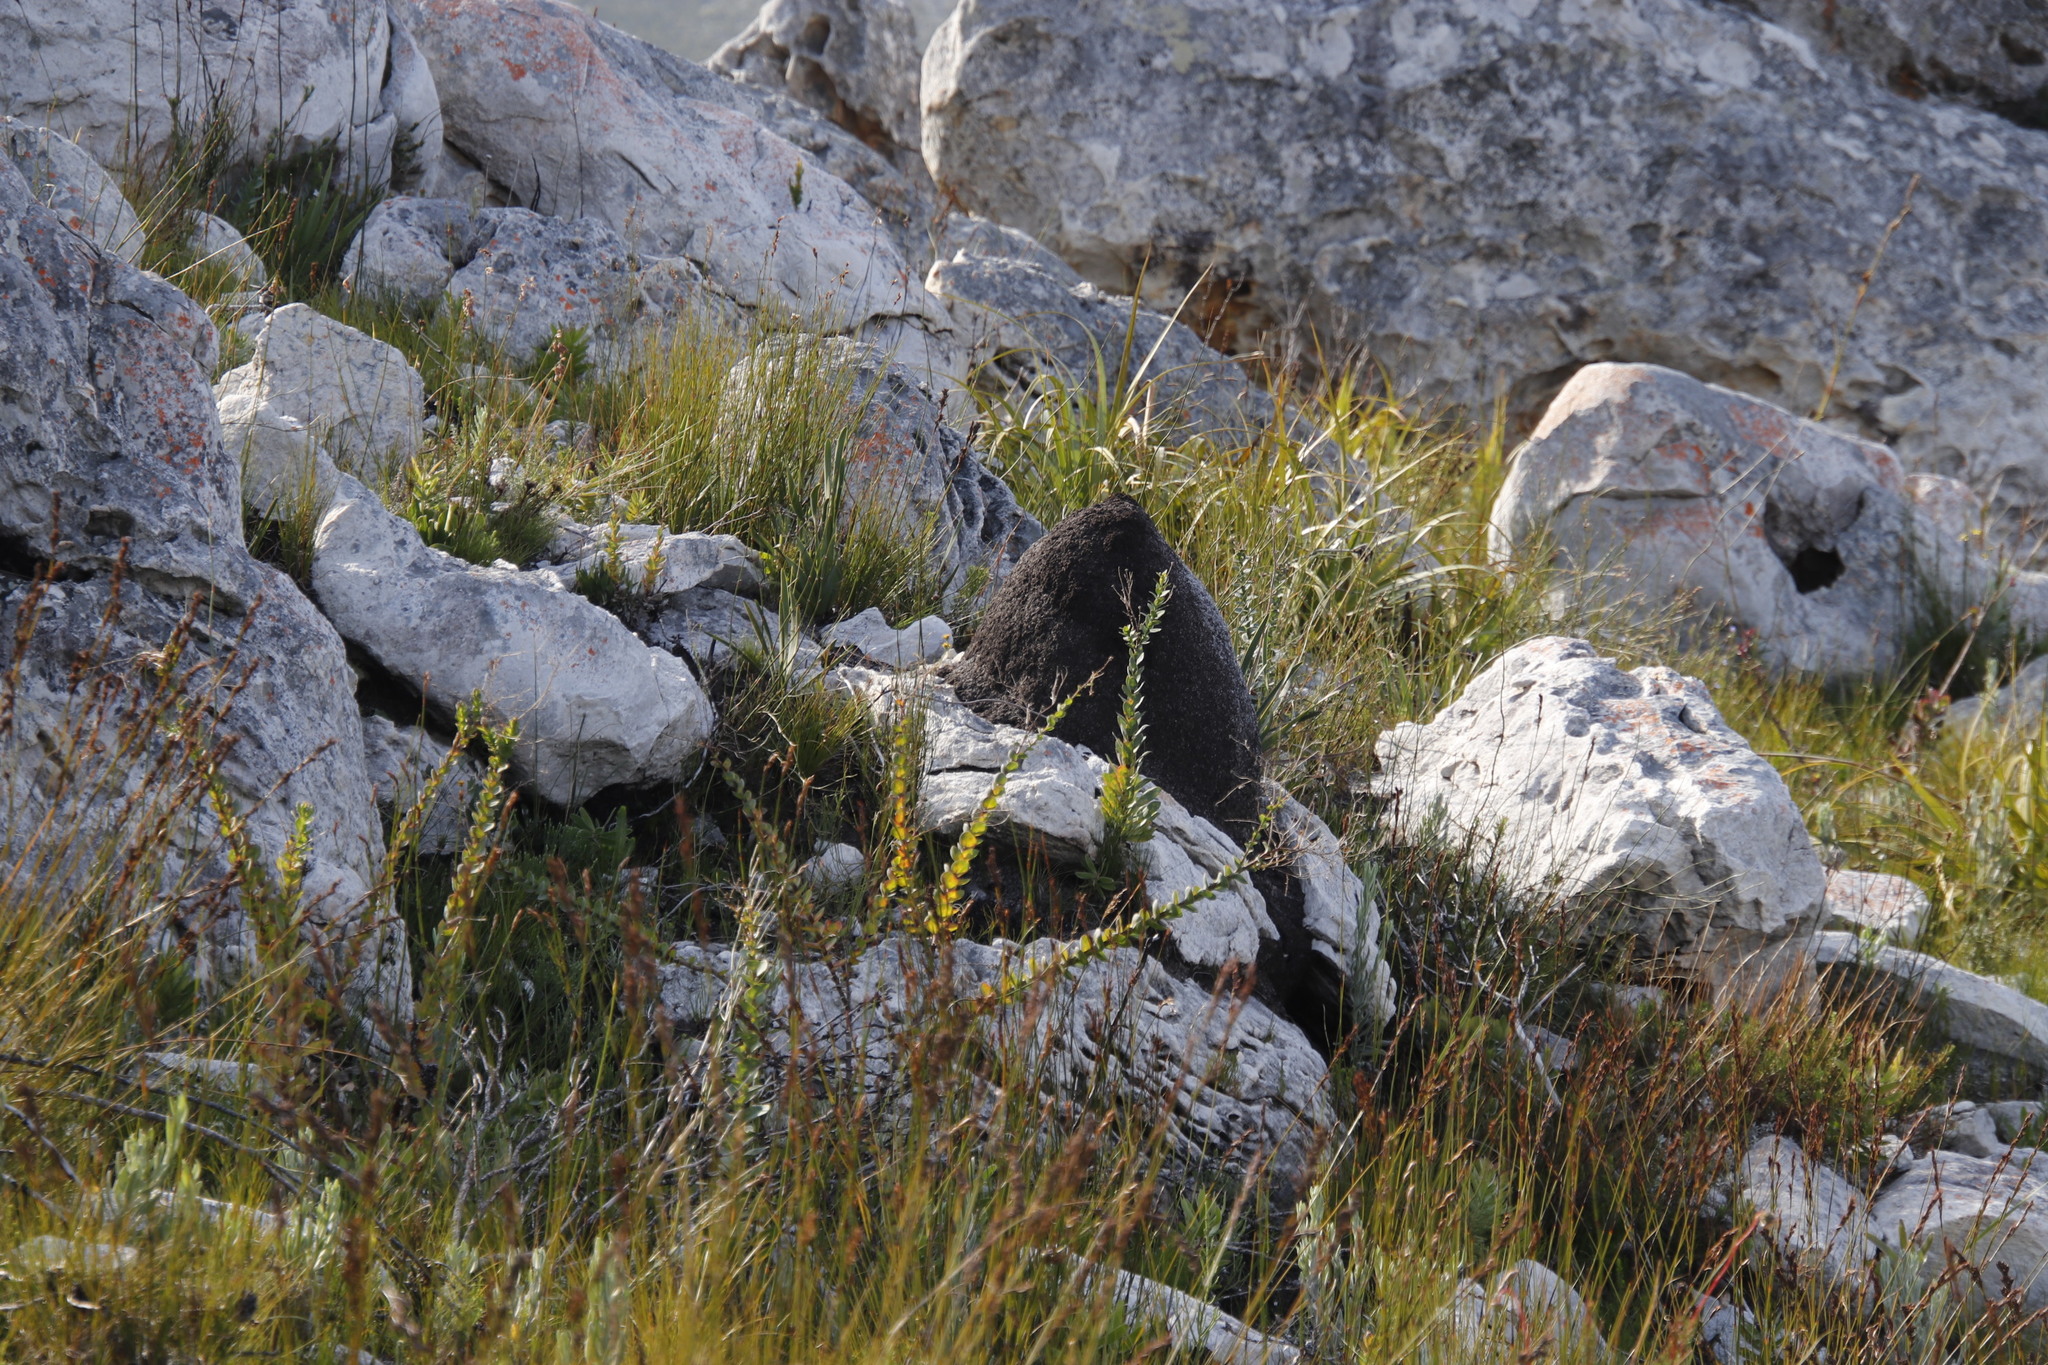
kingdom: Animalia
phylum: Arthropoda
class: Insecta
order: Blattodea
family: Termitidae
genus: Amitermes
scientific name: Amitermes hastatus
